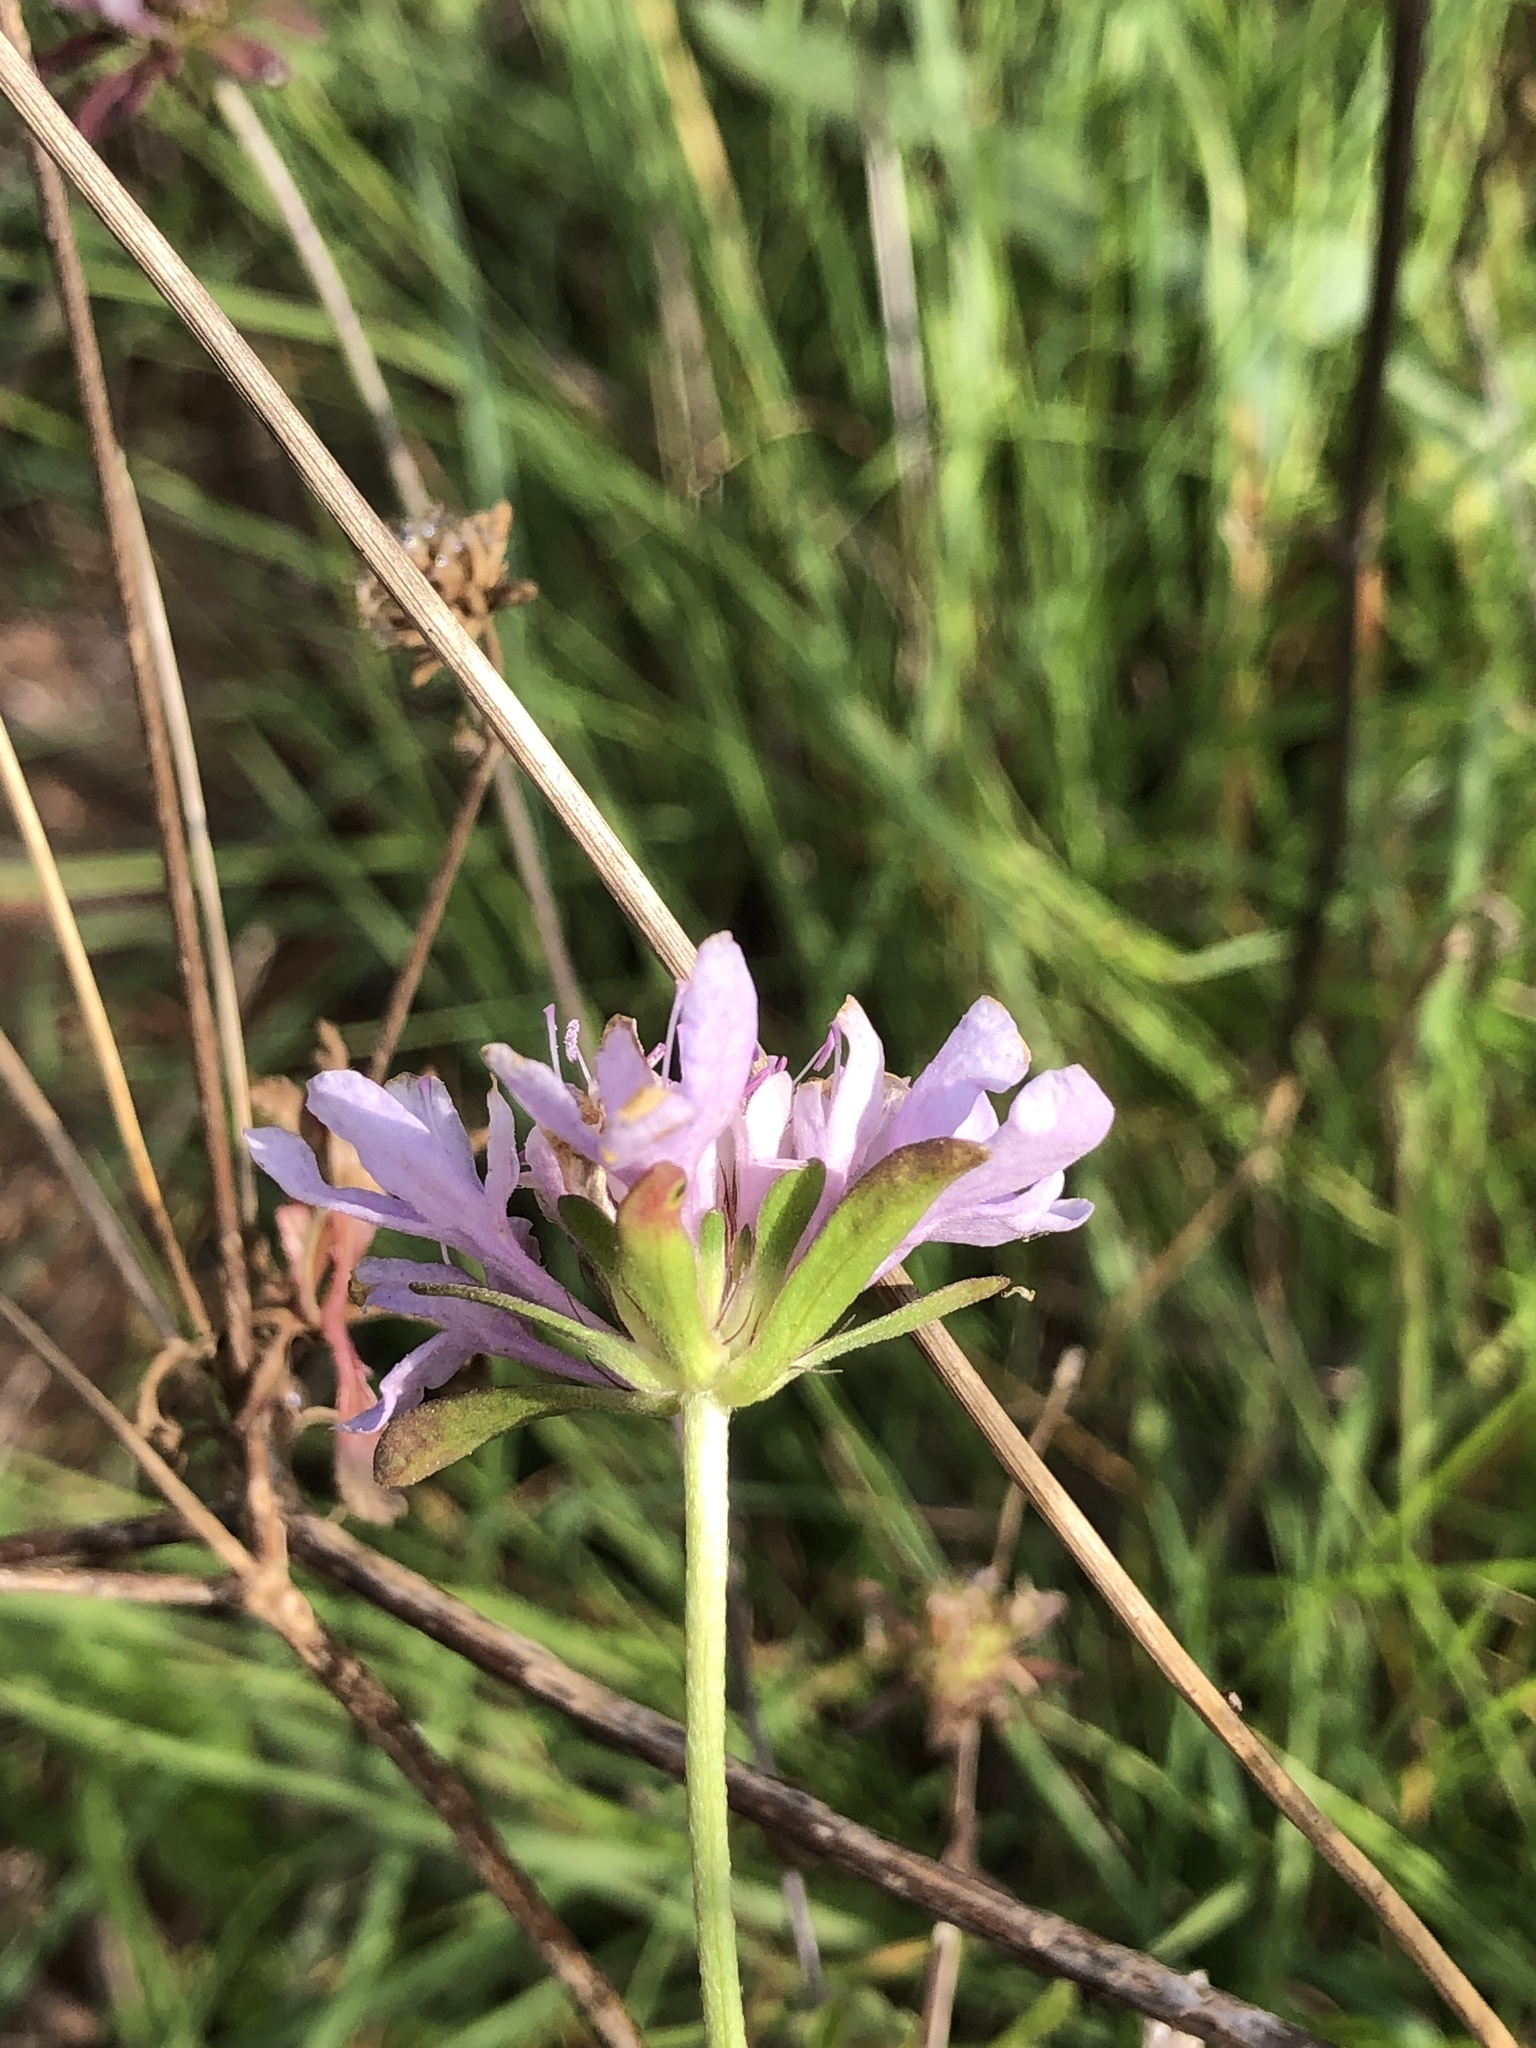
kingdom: Plantae
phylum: Tracheophyta
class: Magnoliopsida
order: Dipsacales
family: Caprifoliaceae
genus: Sixalix
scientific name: Sixalix atropurpurea
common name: Sweet scabious
